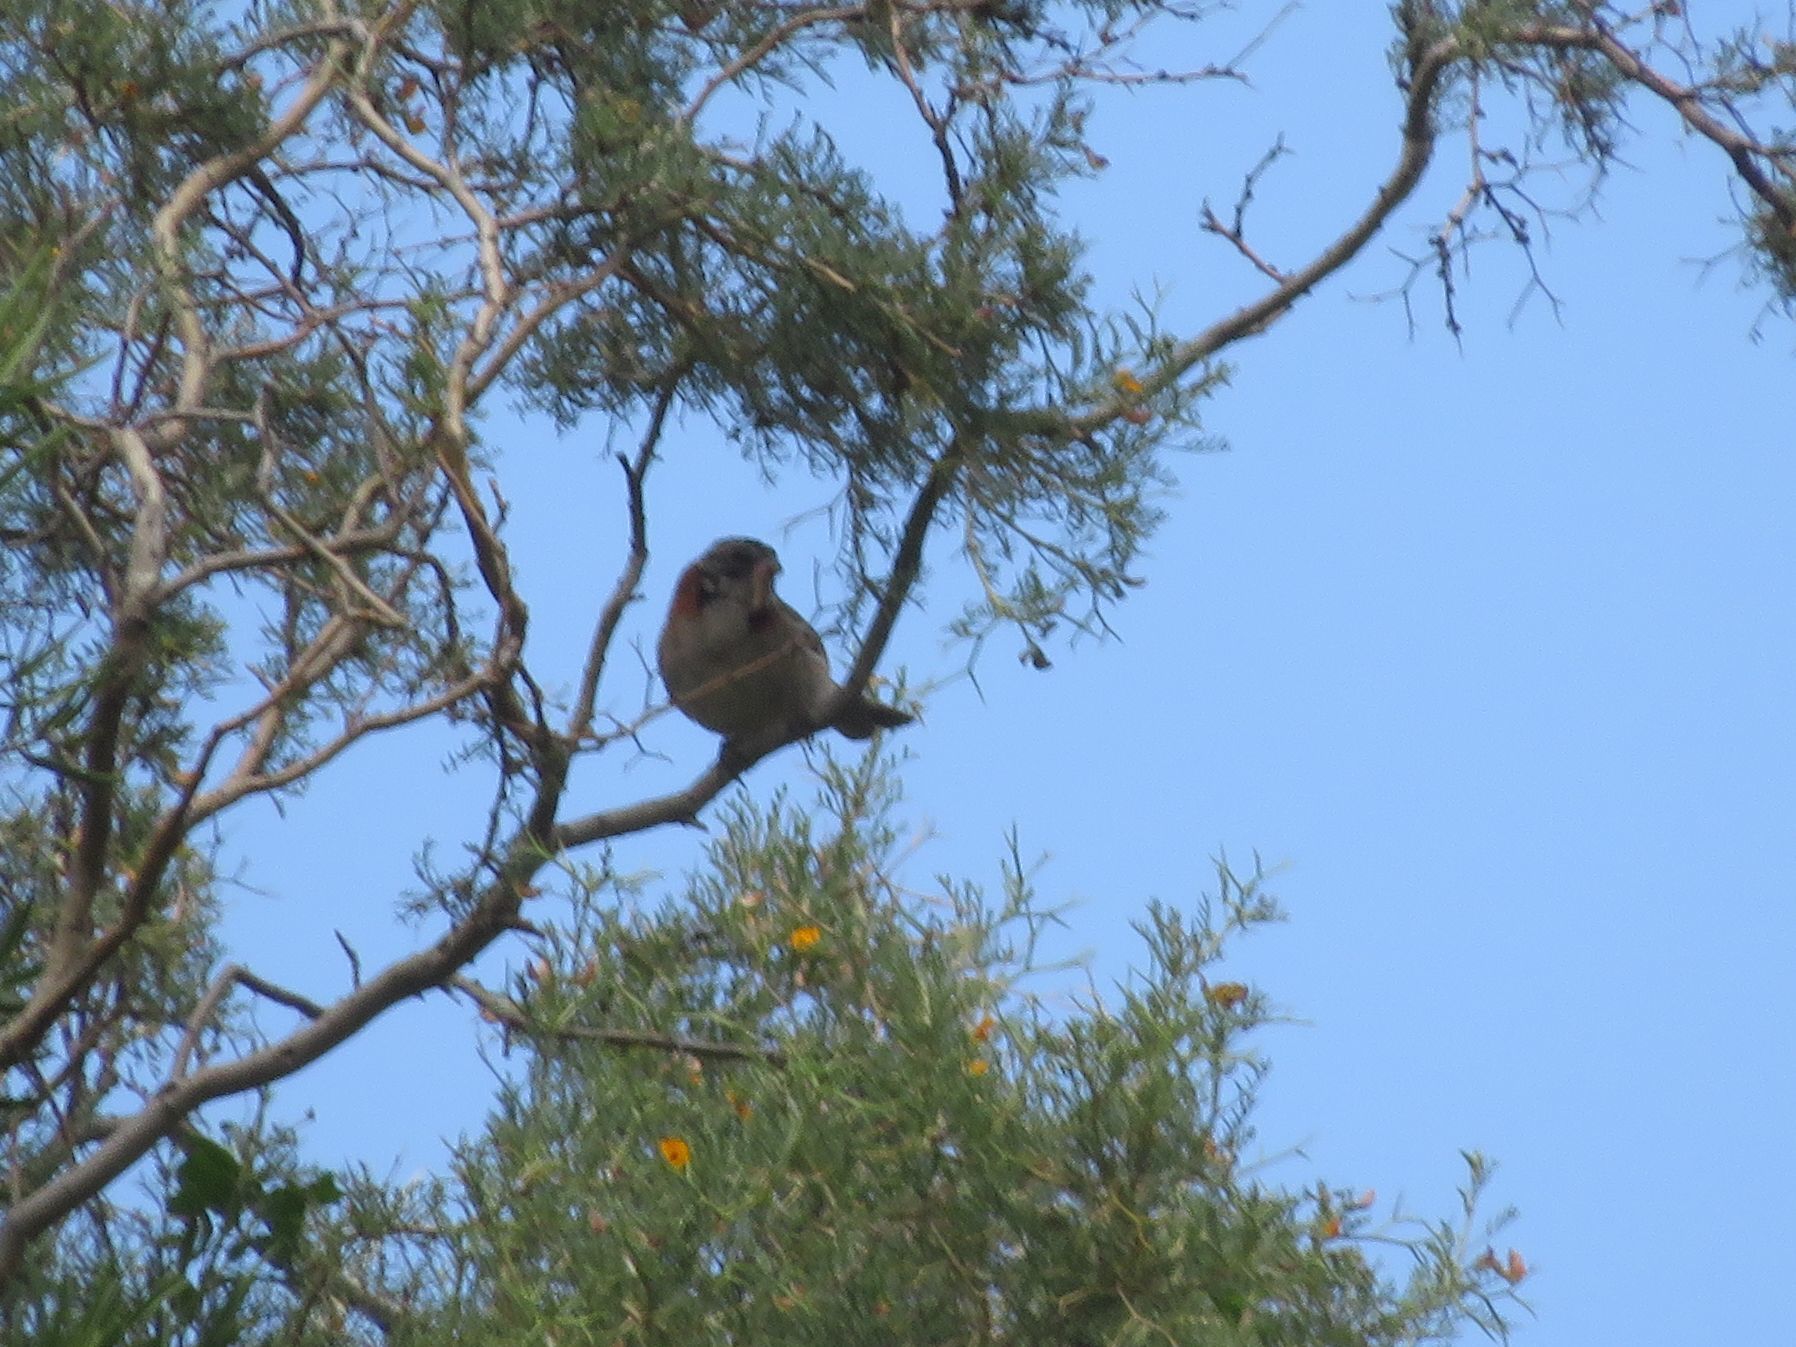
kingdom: Animalia
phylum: Chordata
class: Aves
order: Passeriformes
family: Passerellidae
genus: Zonotrichia
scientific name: Zonotrichia capensis
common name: Rufous-collared sparrow
